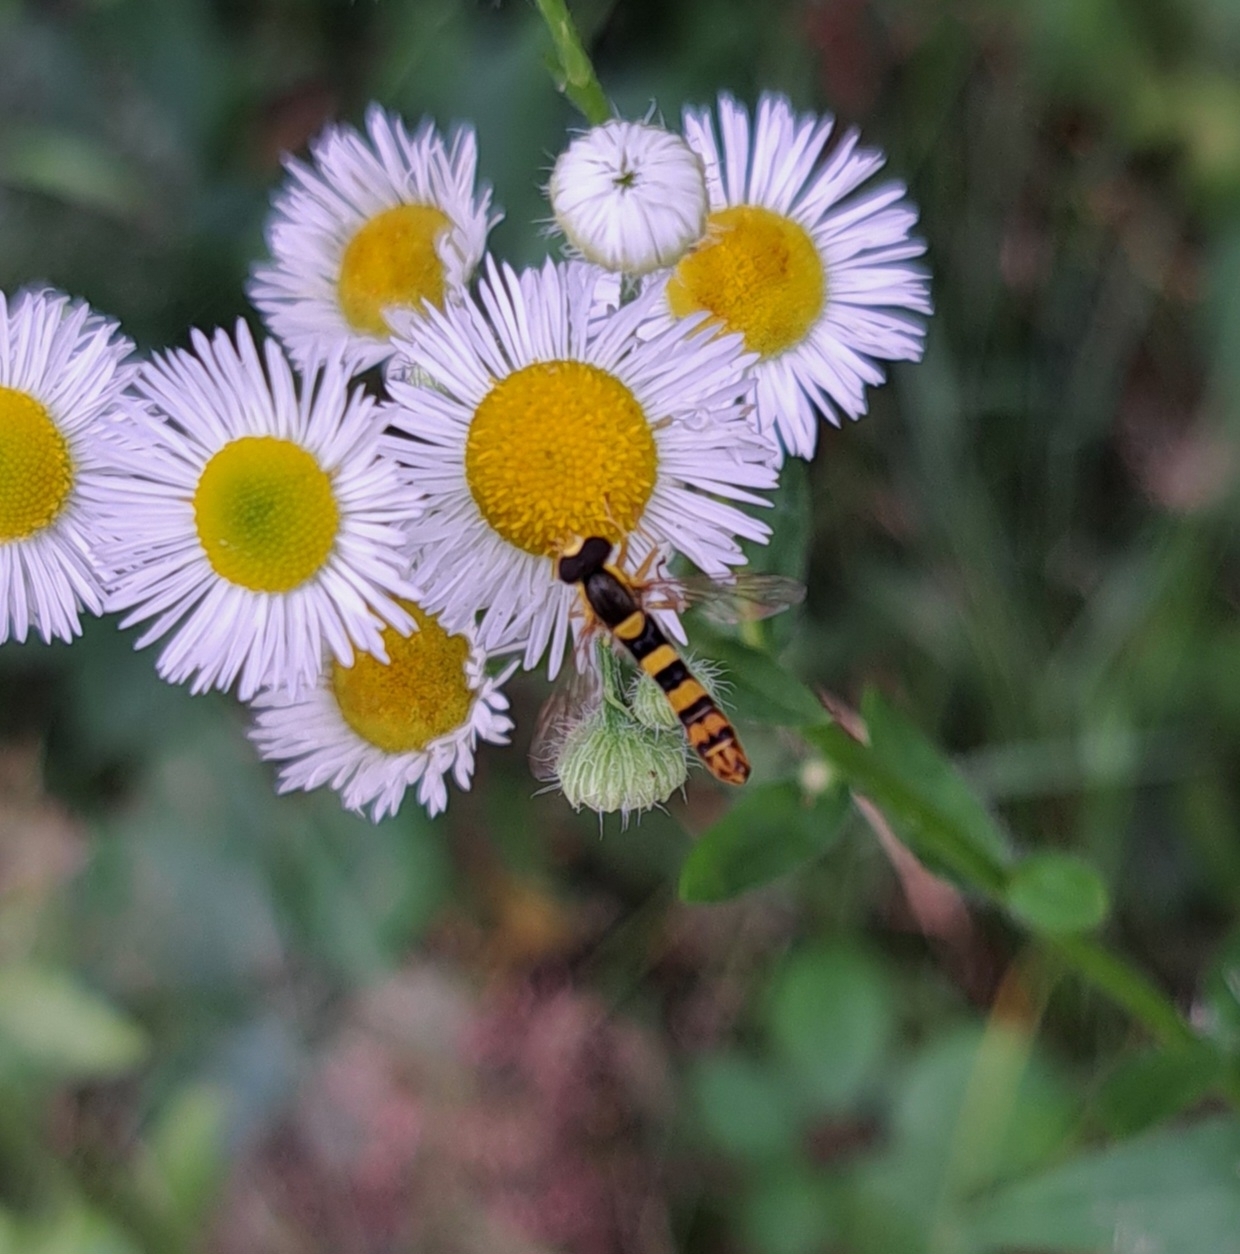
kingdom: Animalia
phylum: Arthropoda
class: Insecta
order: Diptera
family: Syrphidae
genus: Sphaerophoria
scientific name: Sphaerophoria scripta
